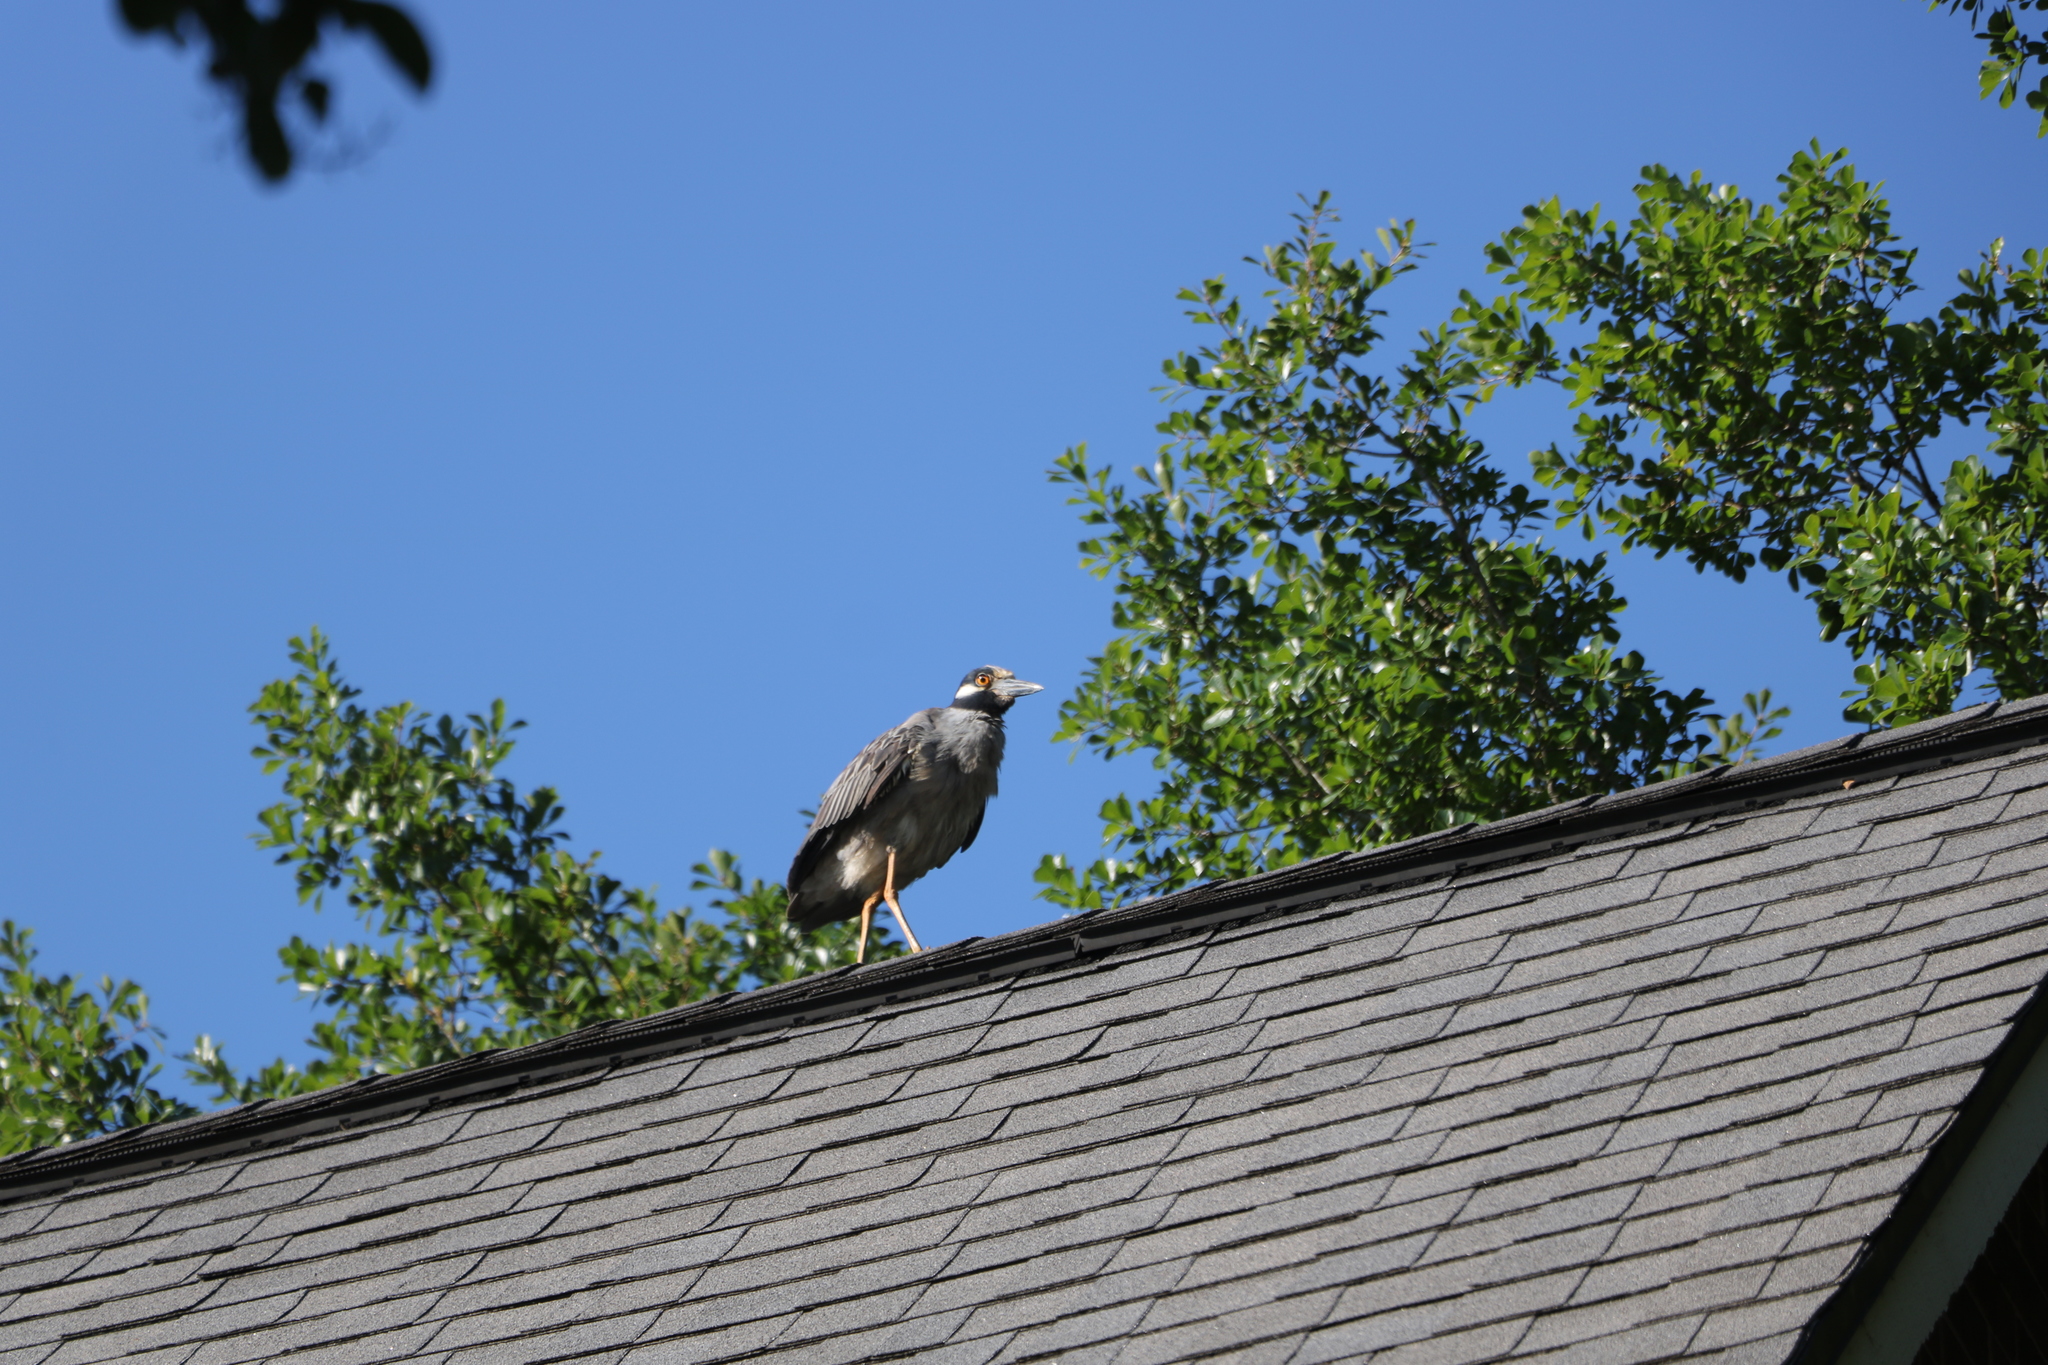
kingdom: Animalia
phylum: Chordata
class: Aves
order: Pelecaniformes
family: Ardeidae
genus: Nyctanassa
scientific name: Nyctanassa violacea
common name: Yellow-crowned night heron
